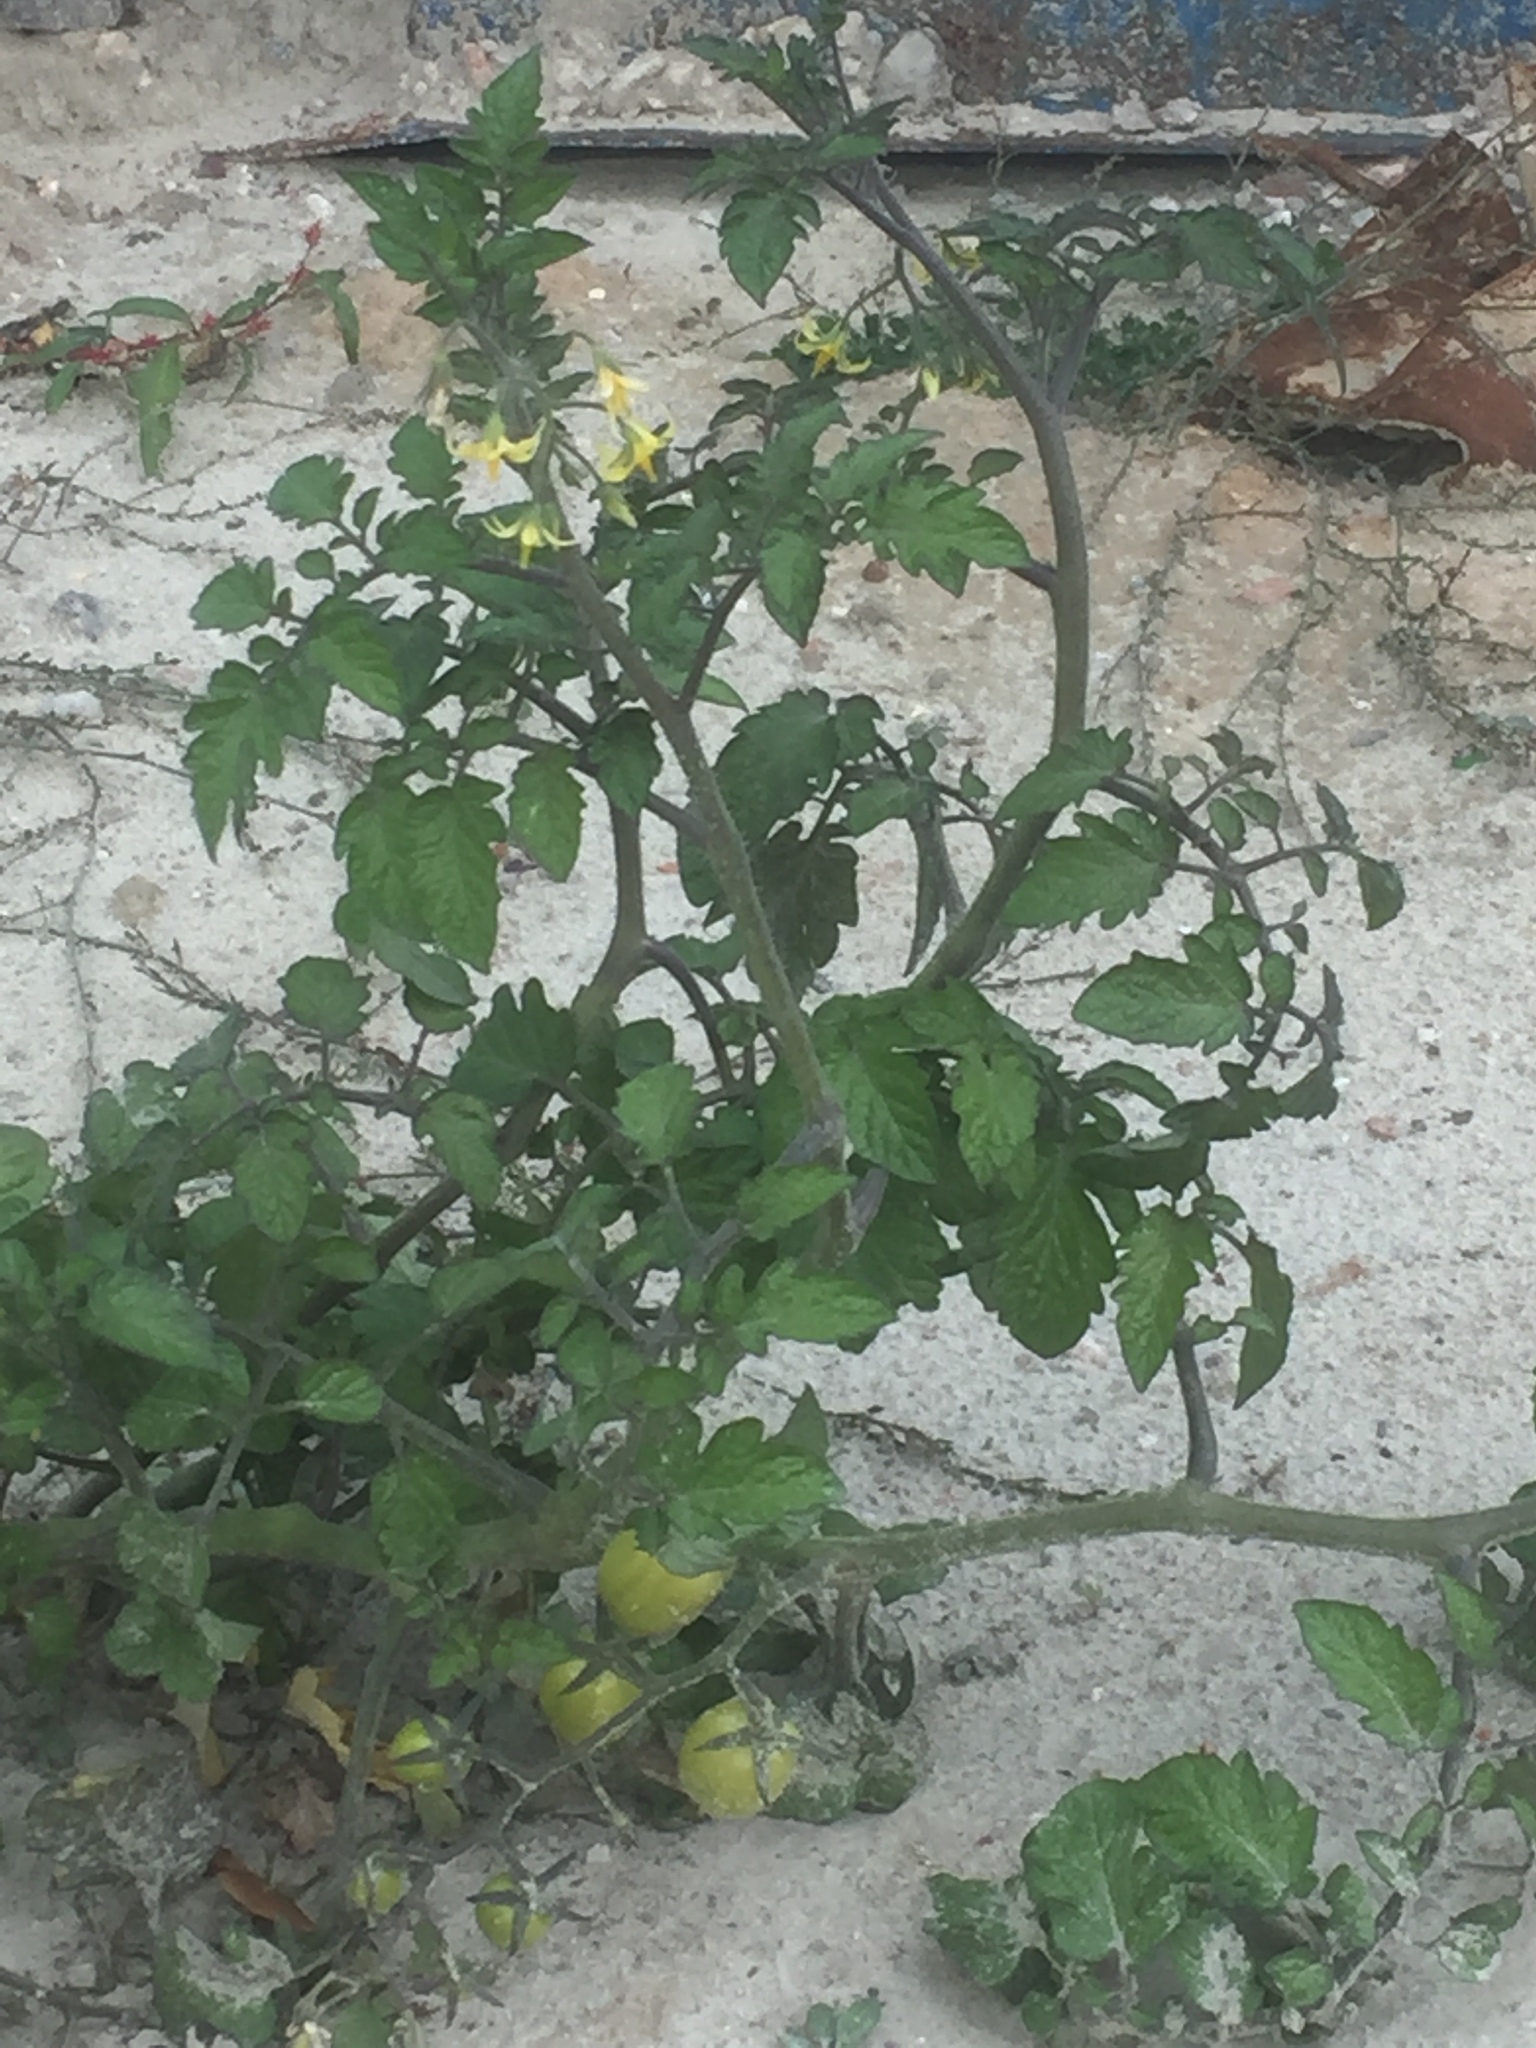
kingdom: Plantae
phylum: Tracheophyta
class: Magnoliopsida
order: Solanales
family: Solanaceae
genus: Solanum
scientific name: Solanum lycopersicum
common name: Garden tomato
